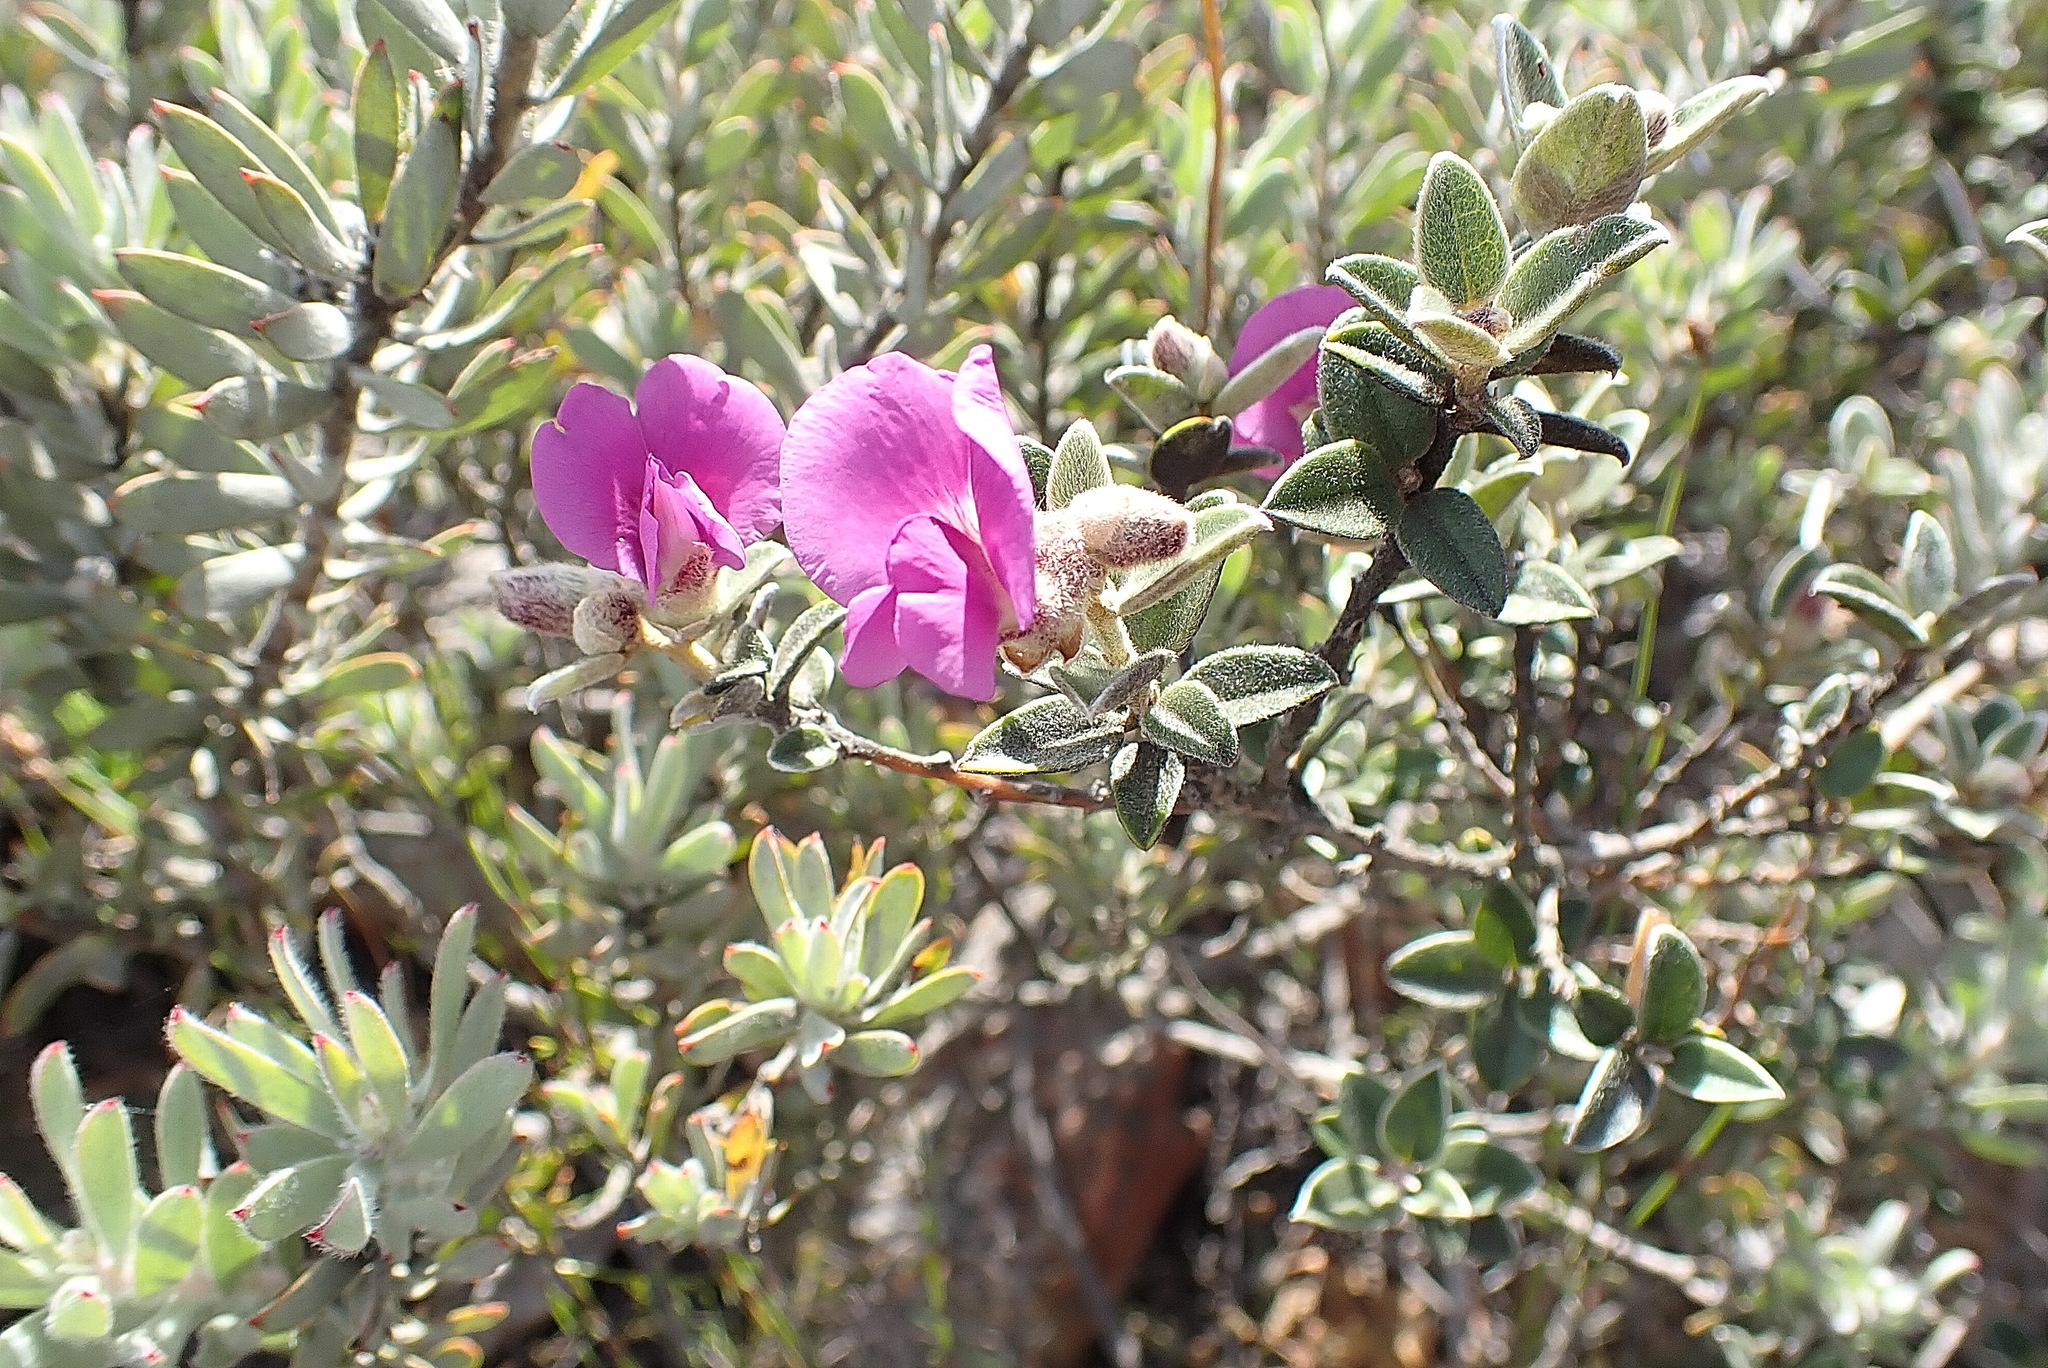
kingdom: Plantae
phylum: Tracheophyta
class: Magnoliopsida
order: Fabales
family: Fabaceae
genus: Podalyria
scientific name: Podalyria burchellii
